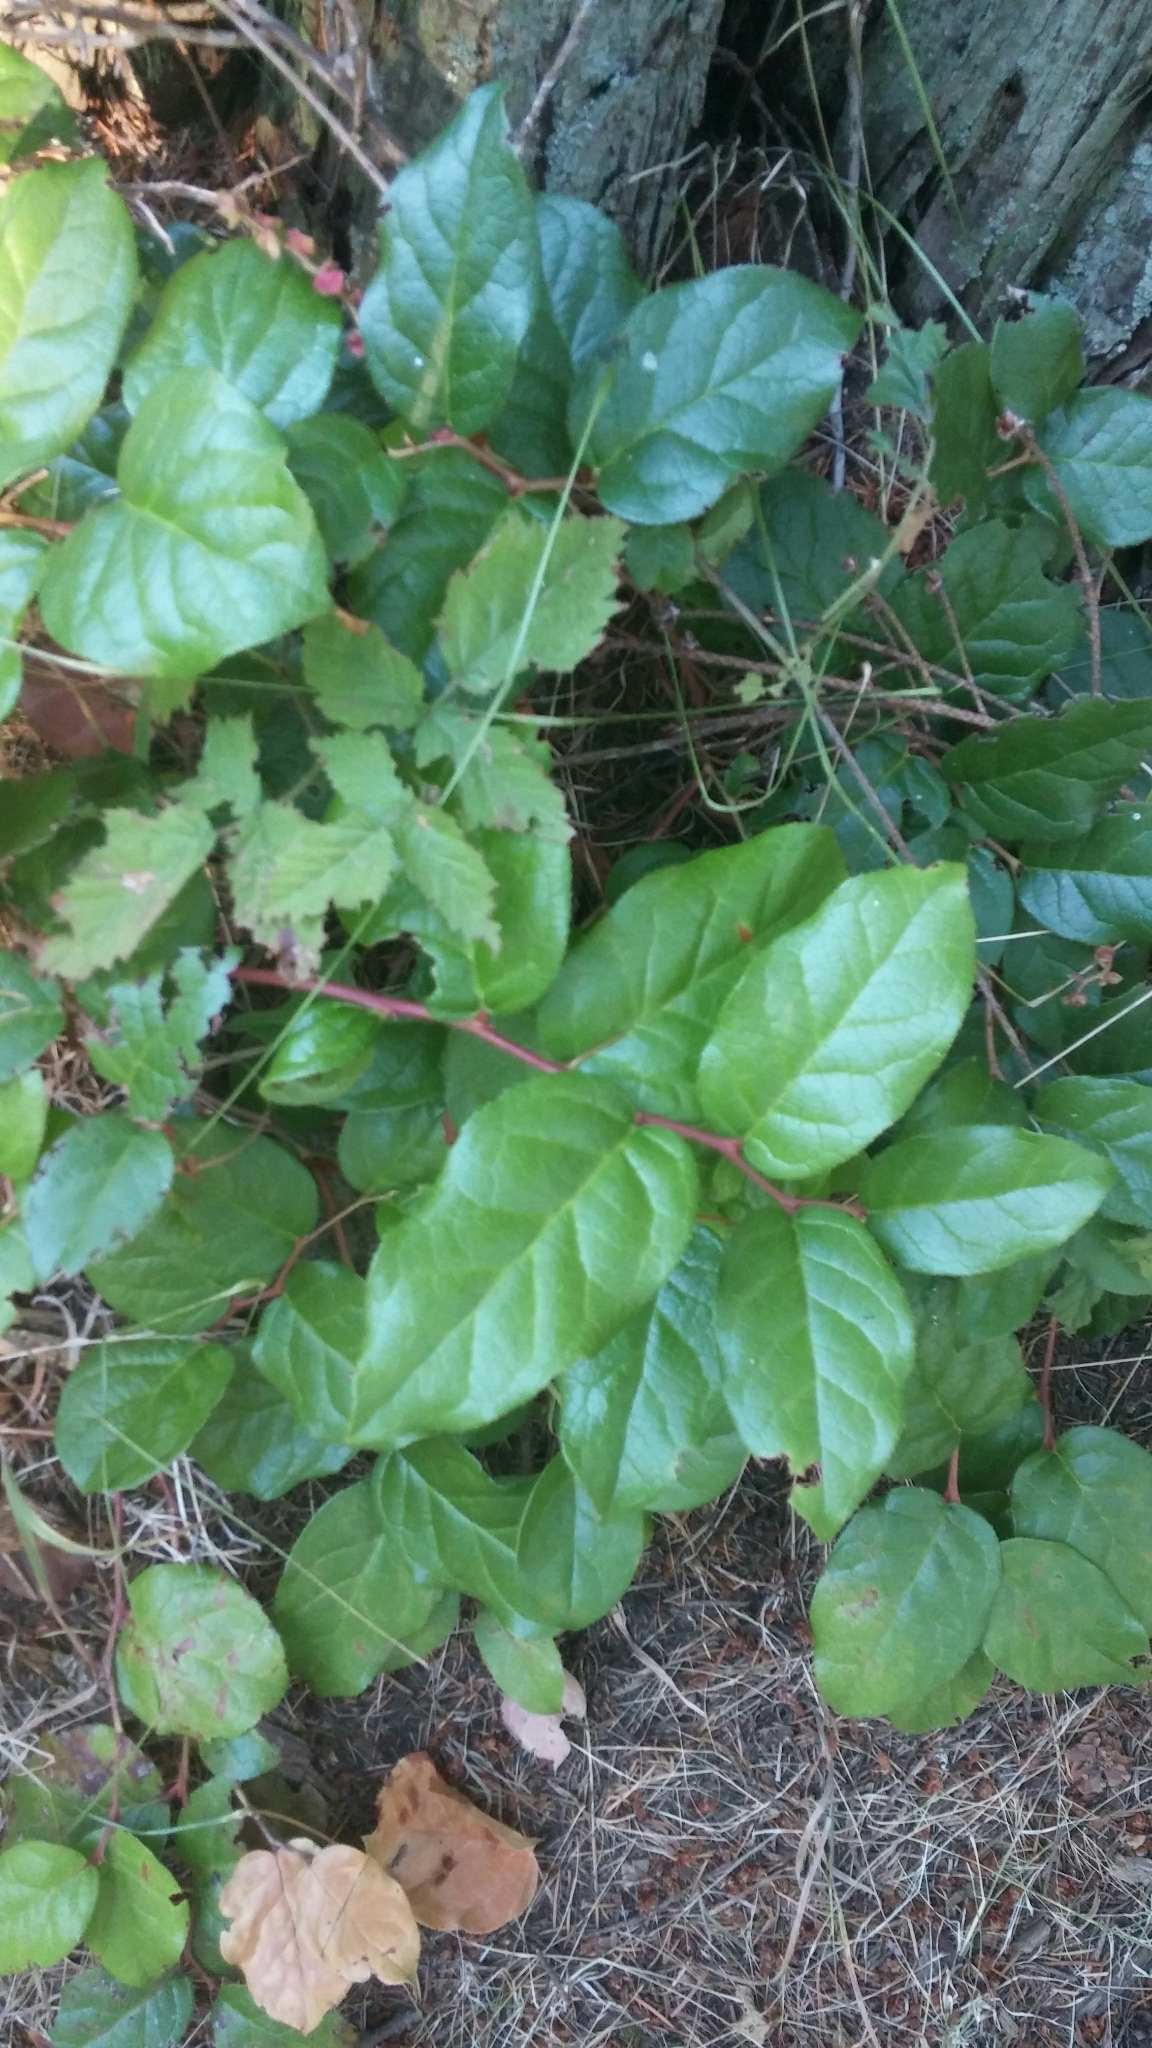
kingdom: Plantae
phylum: Tracheophyta
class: Magnoliopsida
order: Ericales
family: Ericaceae
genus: Gaultheria
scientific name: Gaultheria shallon
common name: Shallon
